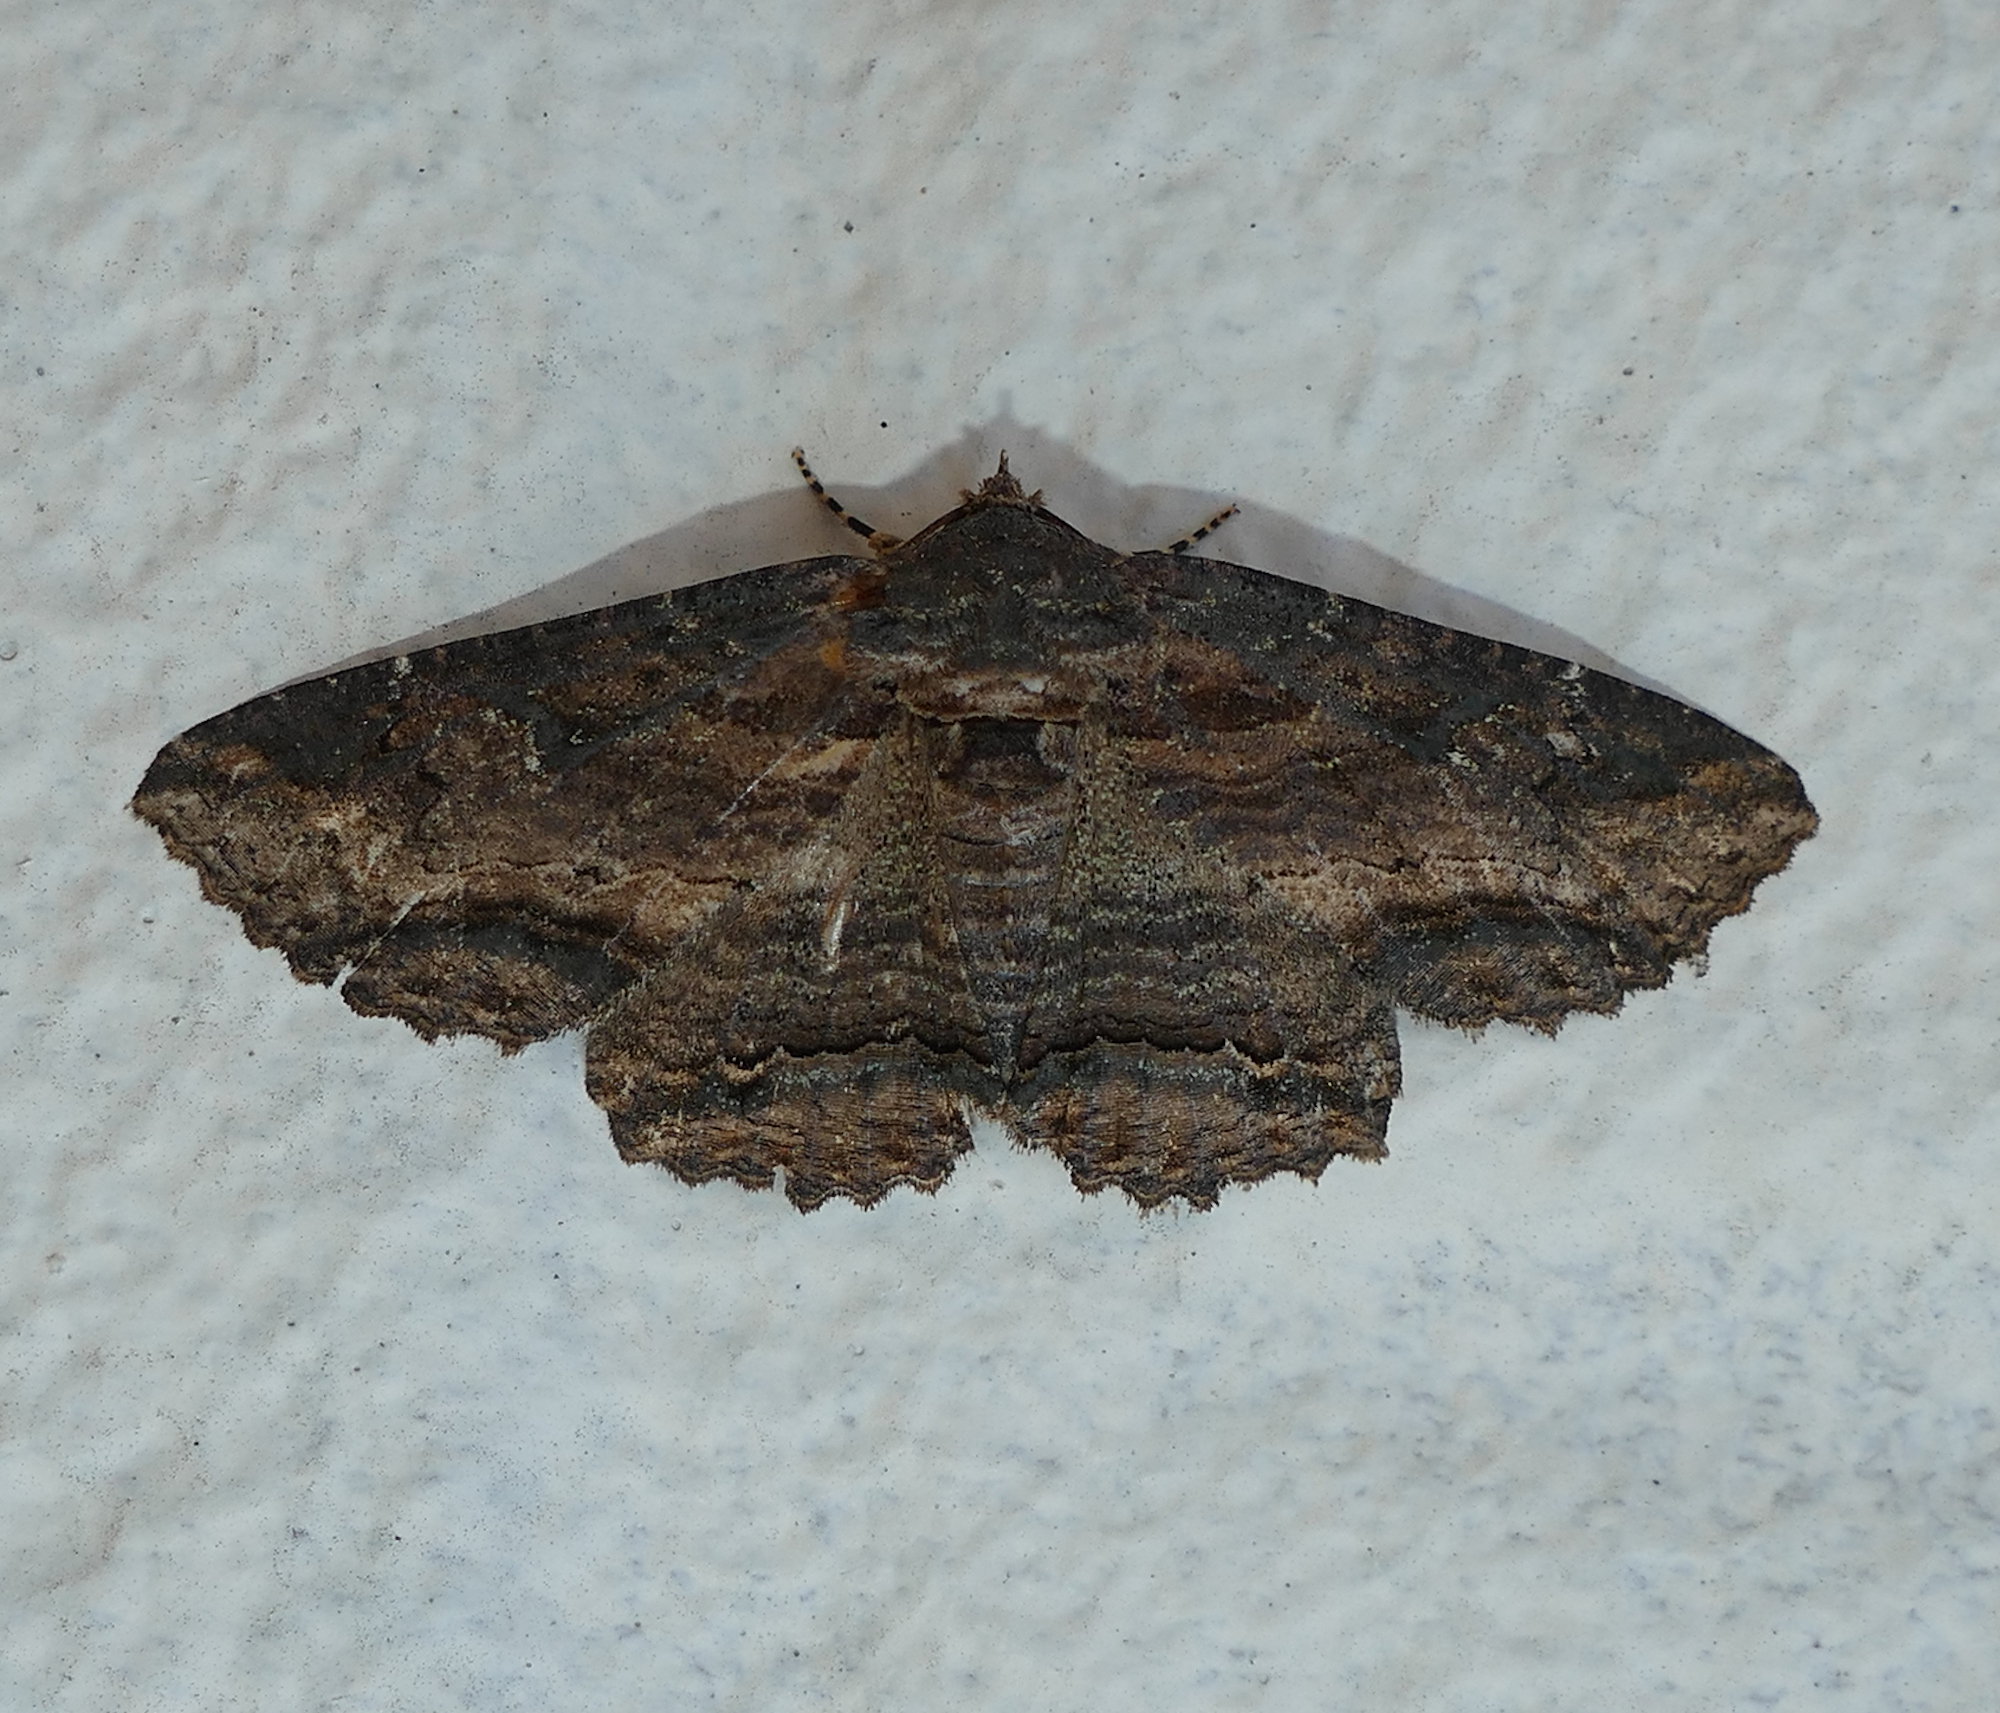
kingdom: Animalia
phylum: Arthropoda
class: Insecta
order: Lepidoptera
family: Erebidae
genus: Zale
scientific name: Zale lunata
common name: Lunate zale moth
